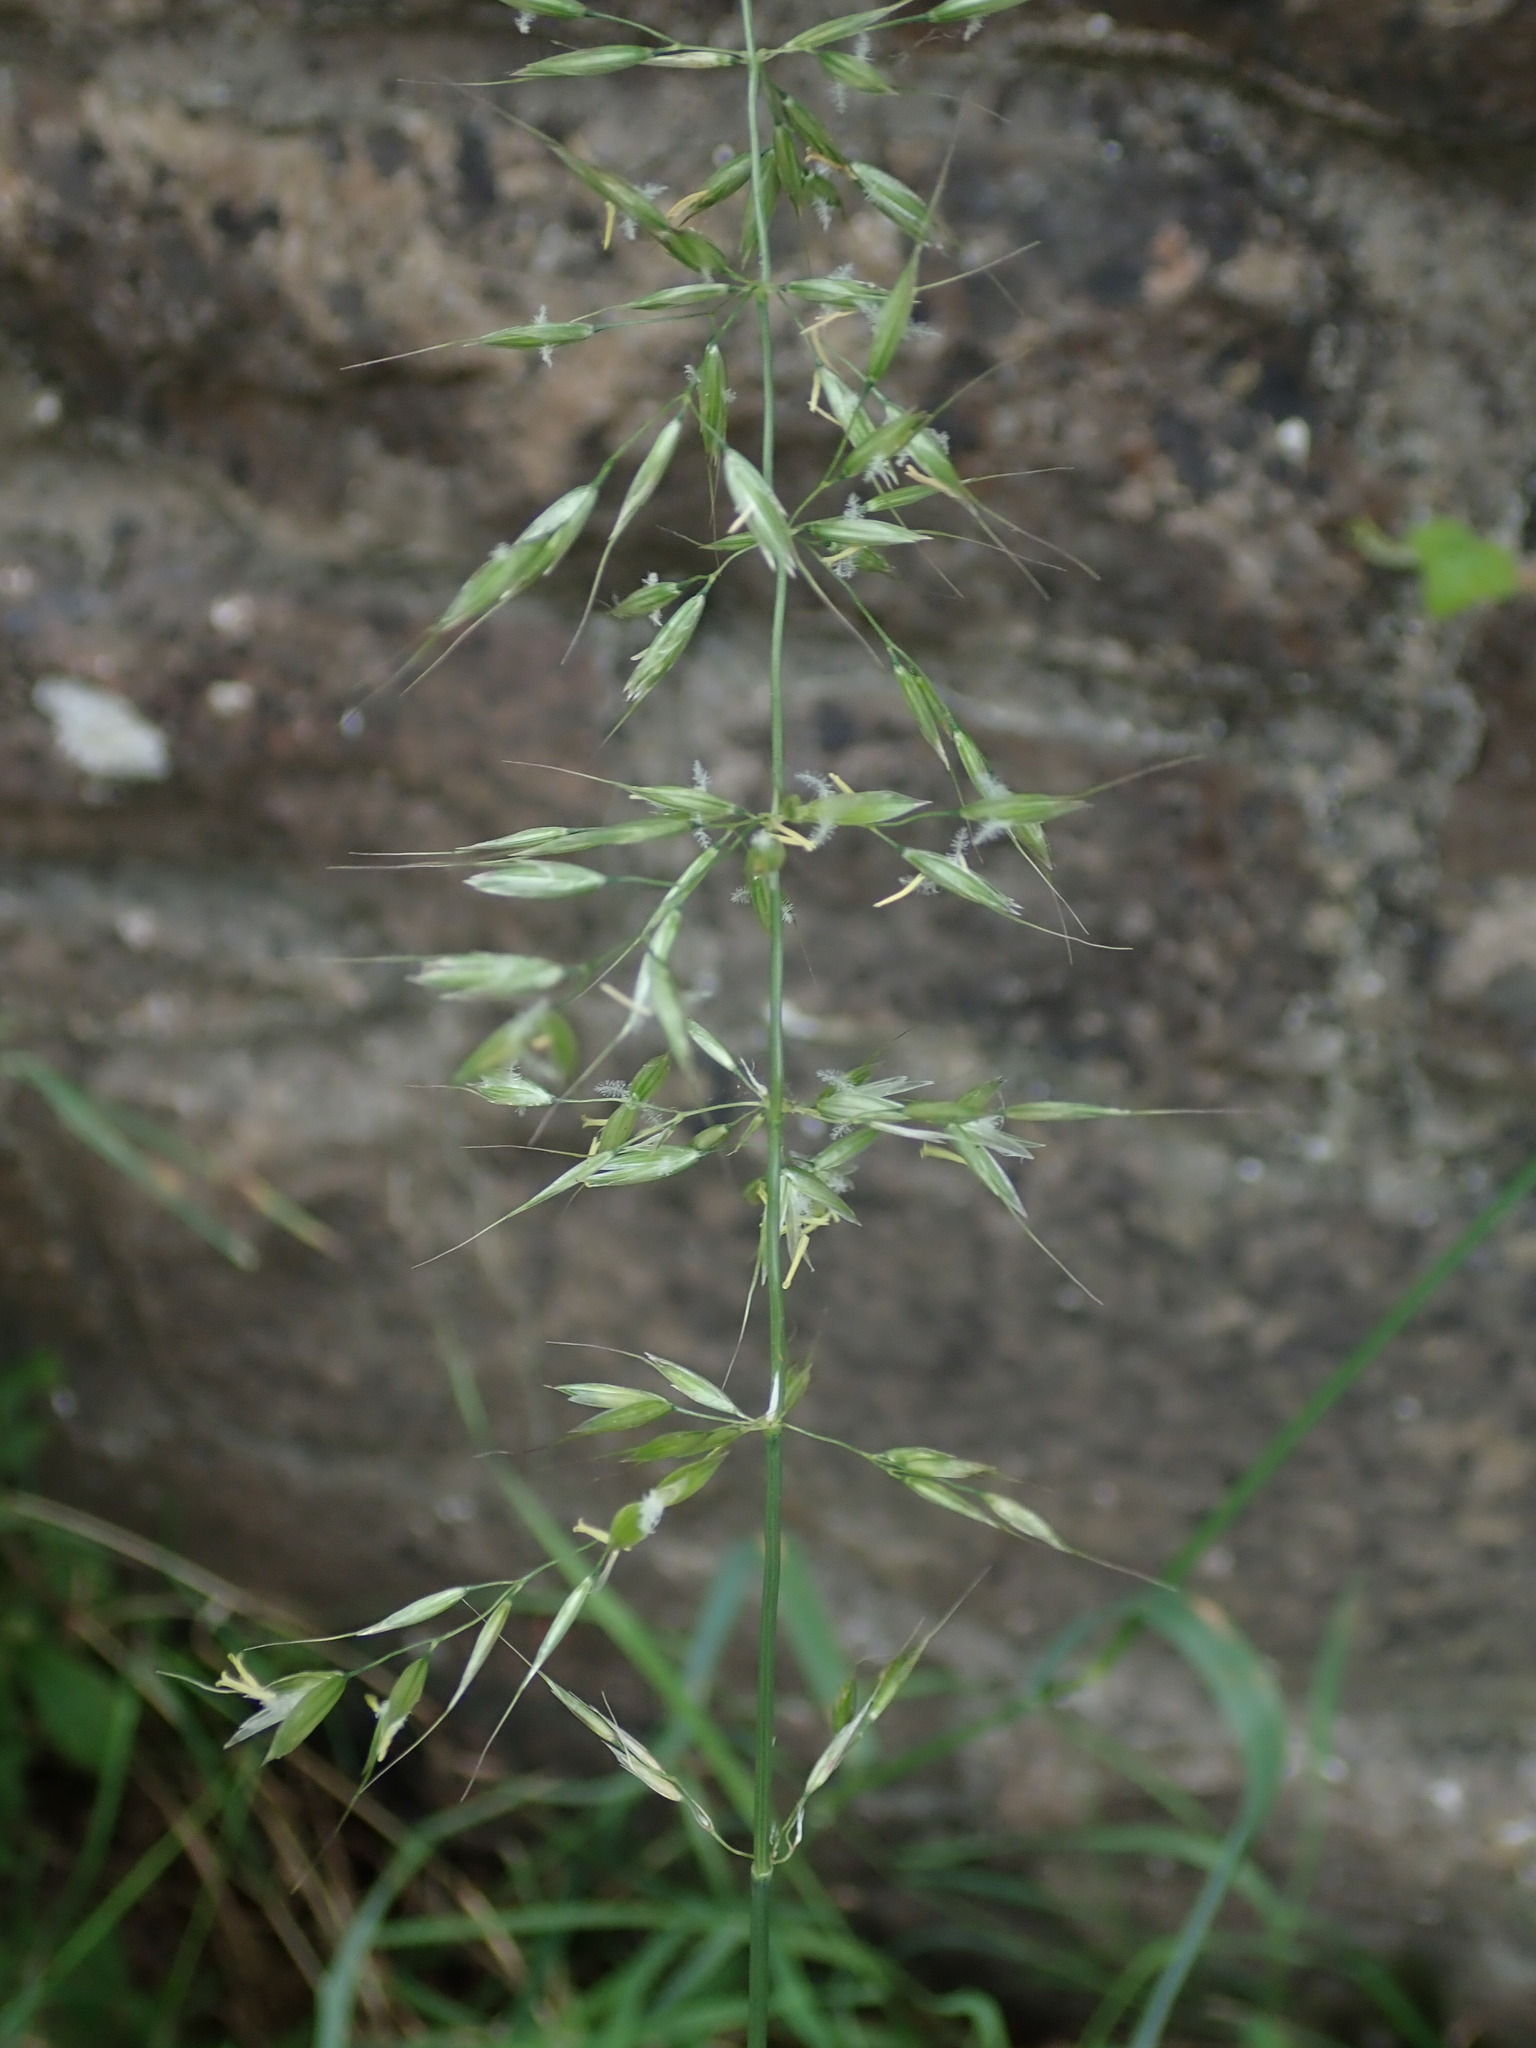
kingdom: Plantae
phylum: Tracheophyta
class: Liliopsida
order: Poales
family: Poaceae
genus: Arrhenatherum
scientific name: Arrhenatherum elatius
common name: Tall oatgrass
